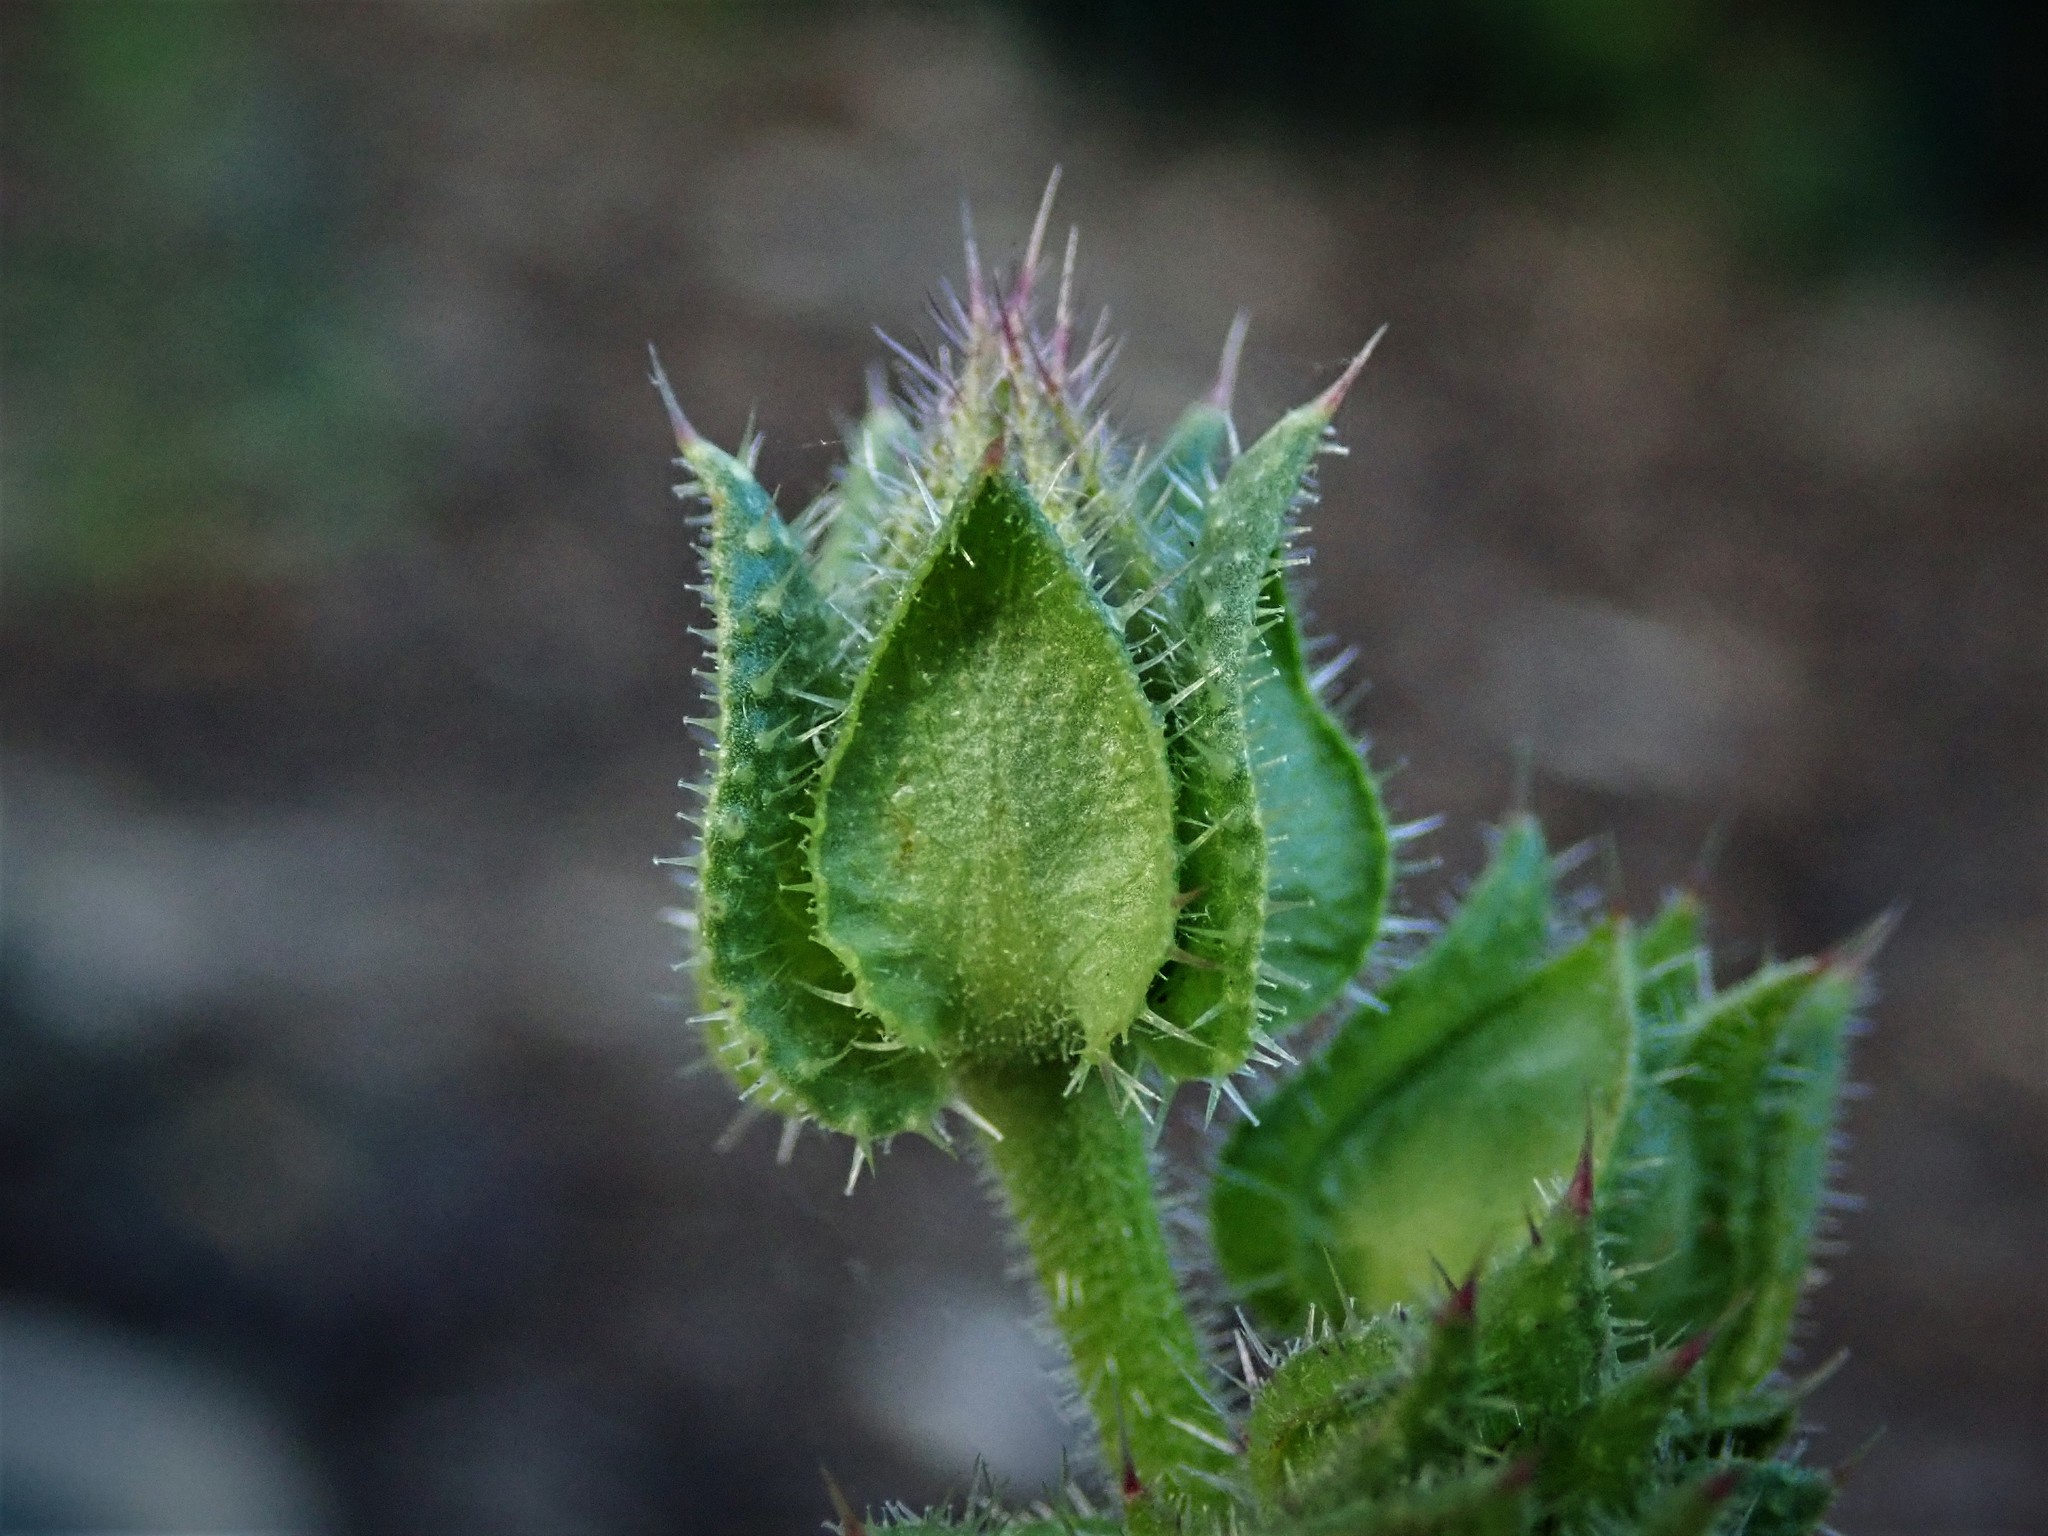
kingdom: Plantae
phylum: Tracheophyta
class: Magnoliopsida
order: Asterales
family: Asteraceae
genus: Helminthotheca
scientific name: Helminthotheca echioides
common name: Ox-tongue
